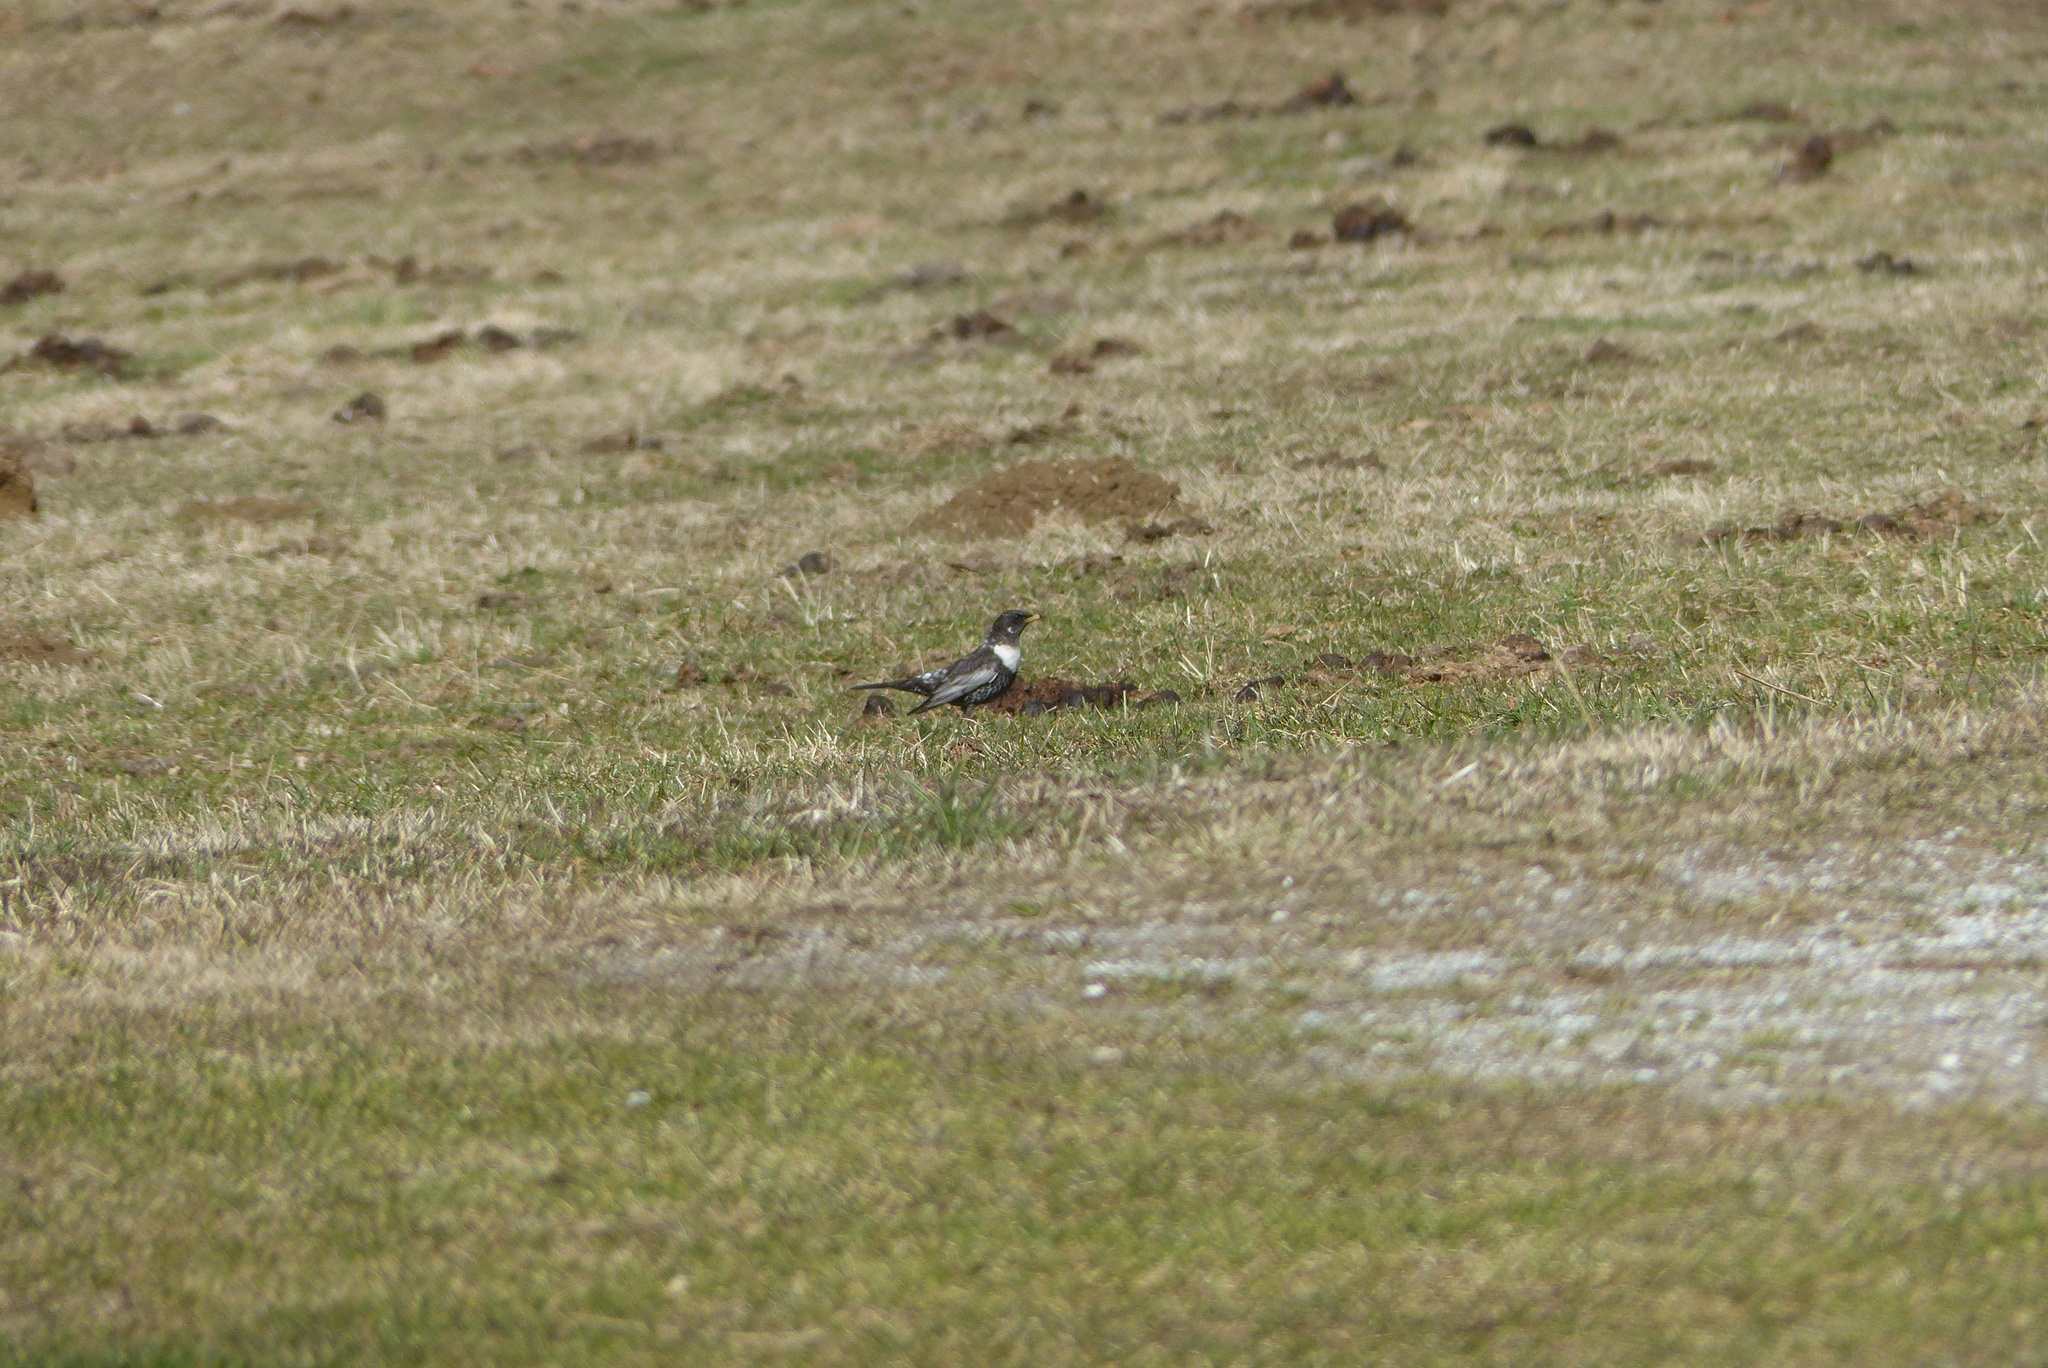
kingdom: Animalia
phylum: Chordata
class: Aves
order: Passeriformes
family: Turdidae
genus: Turdus
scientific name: Turdus torquatus
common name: Ring ouzel
